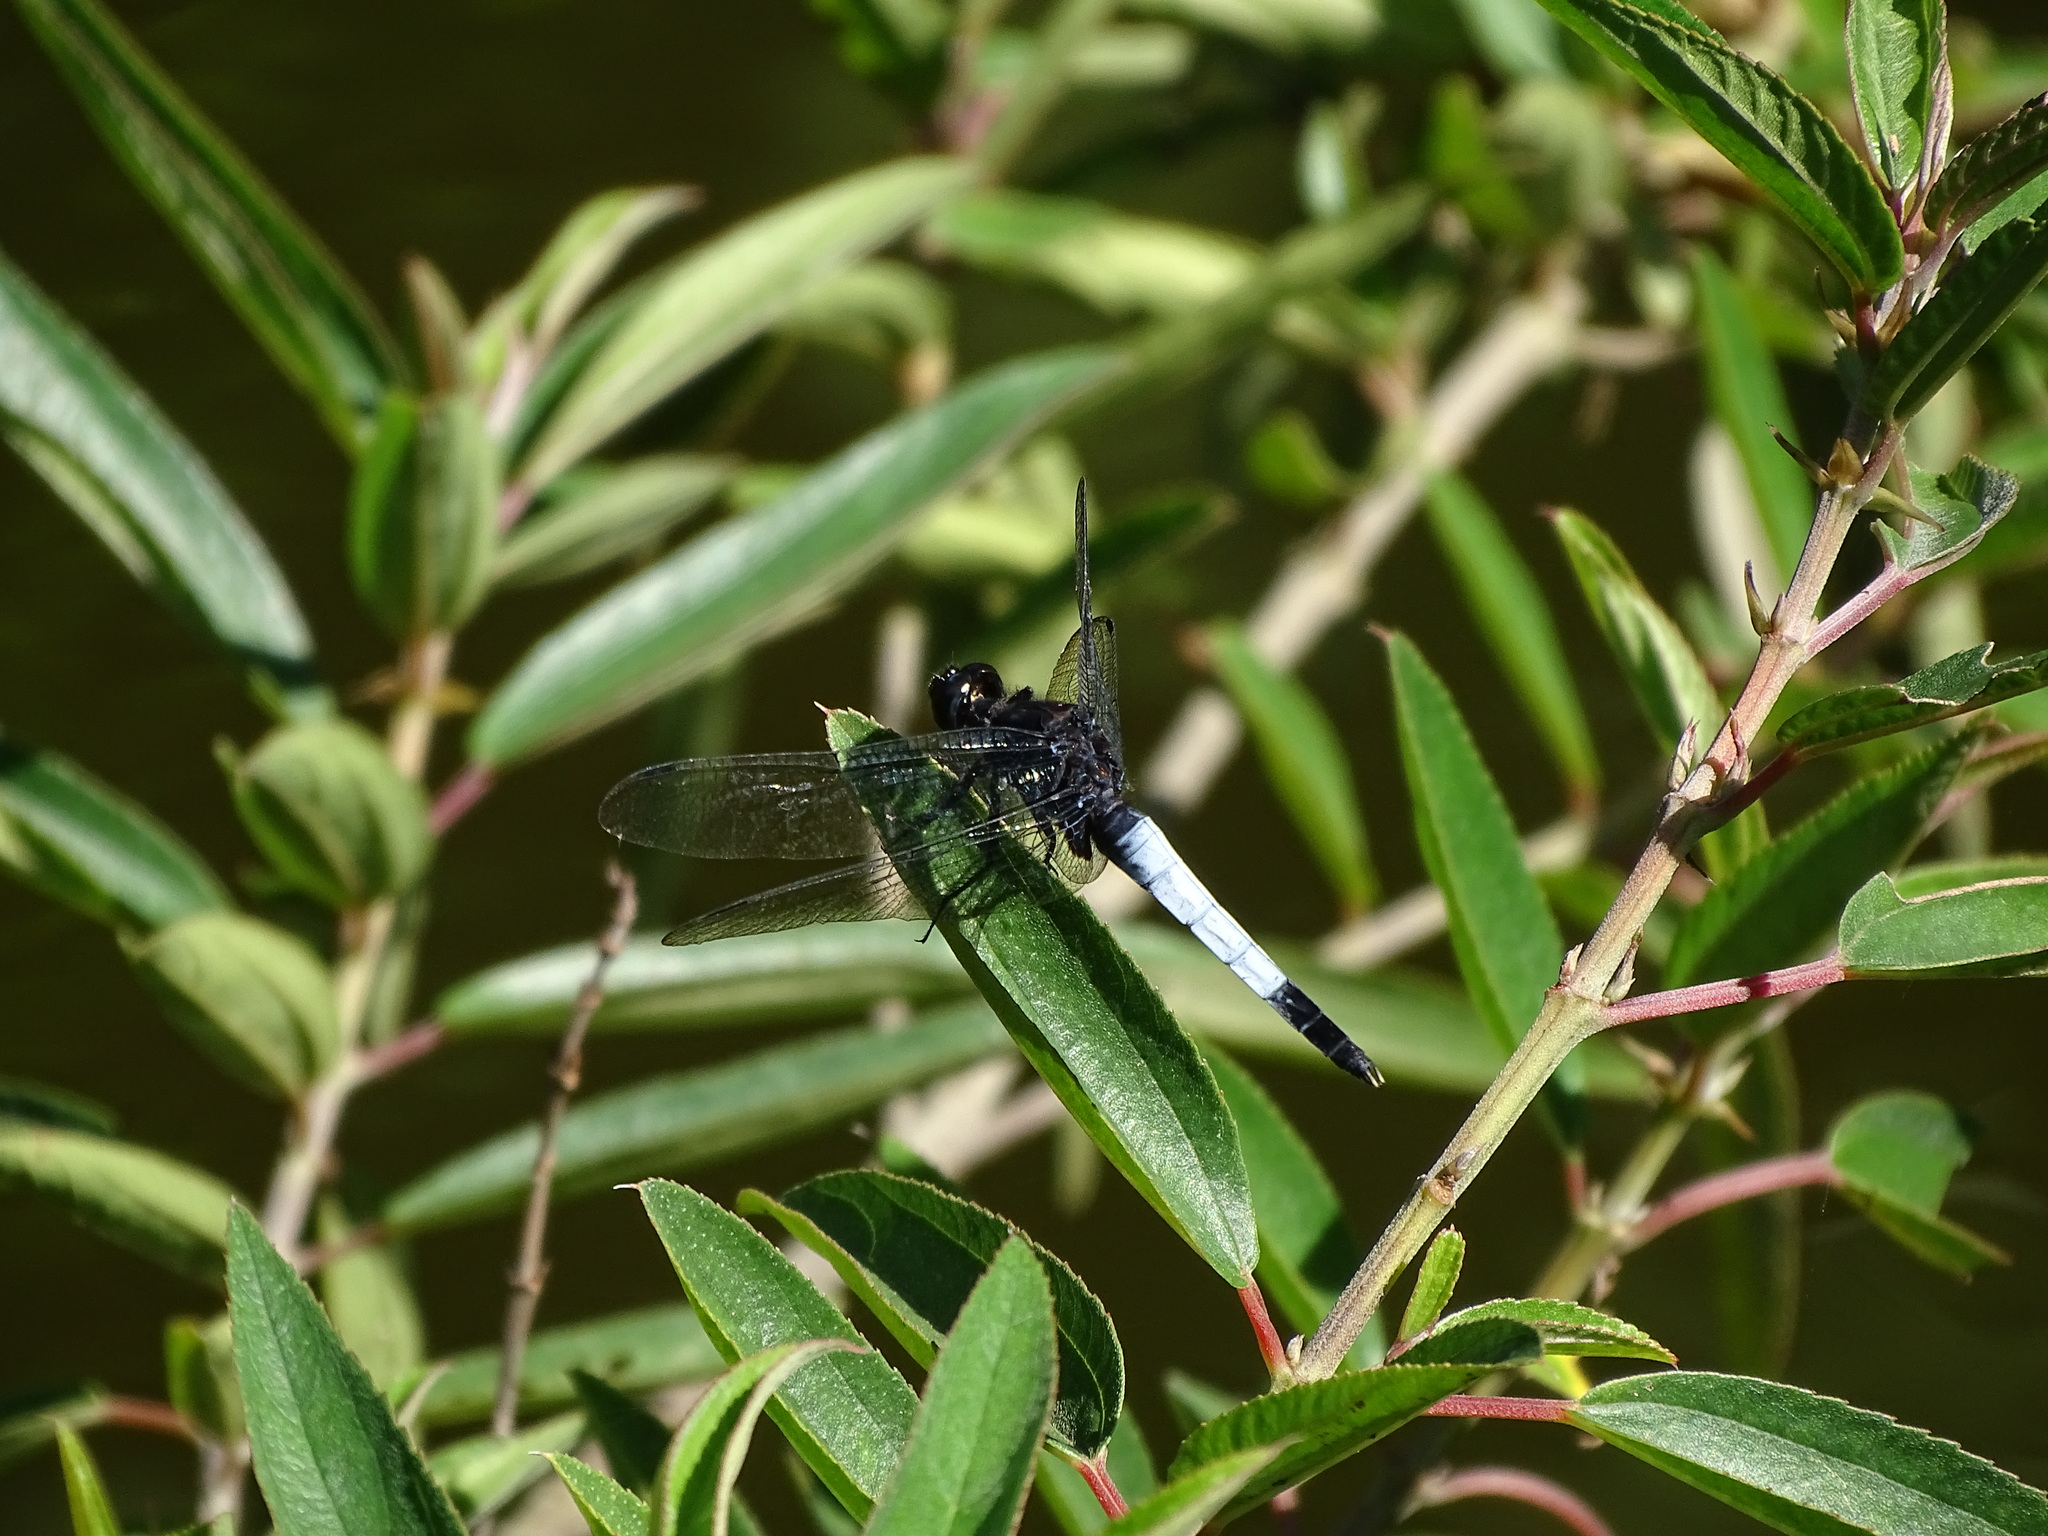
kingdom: Animalia
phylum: Arthropoda
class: Insecta
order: Odonata
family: Libellulidae
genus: Orthetrum
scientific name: Orthetrum triangulare
